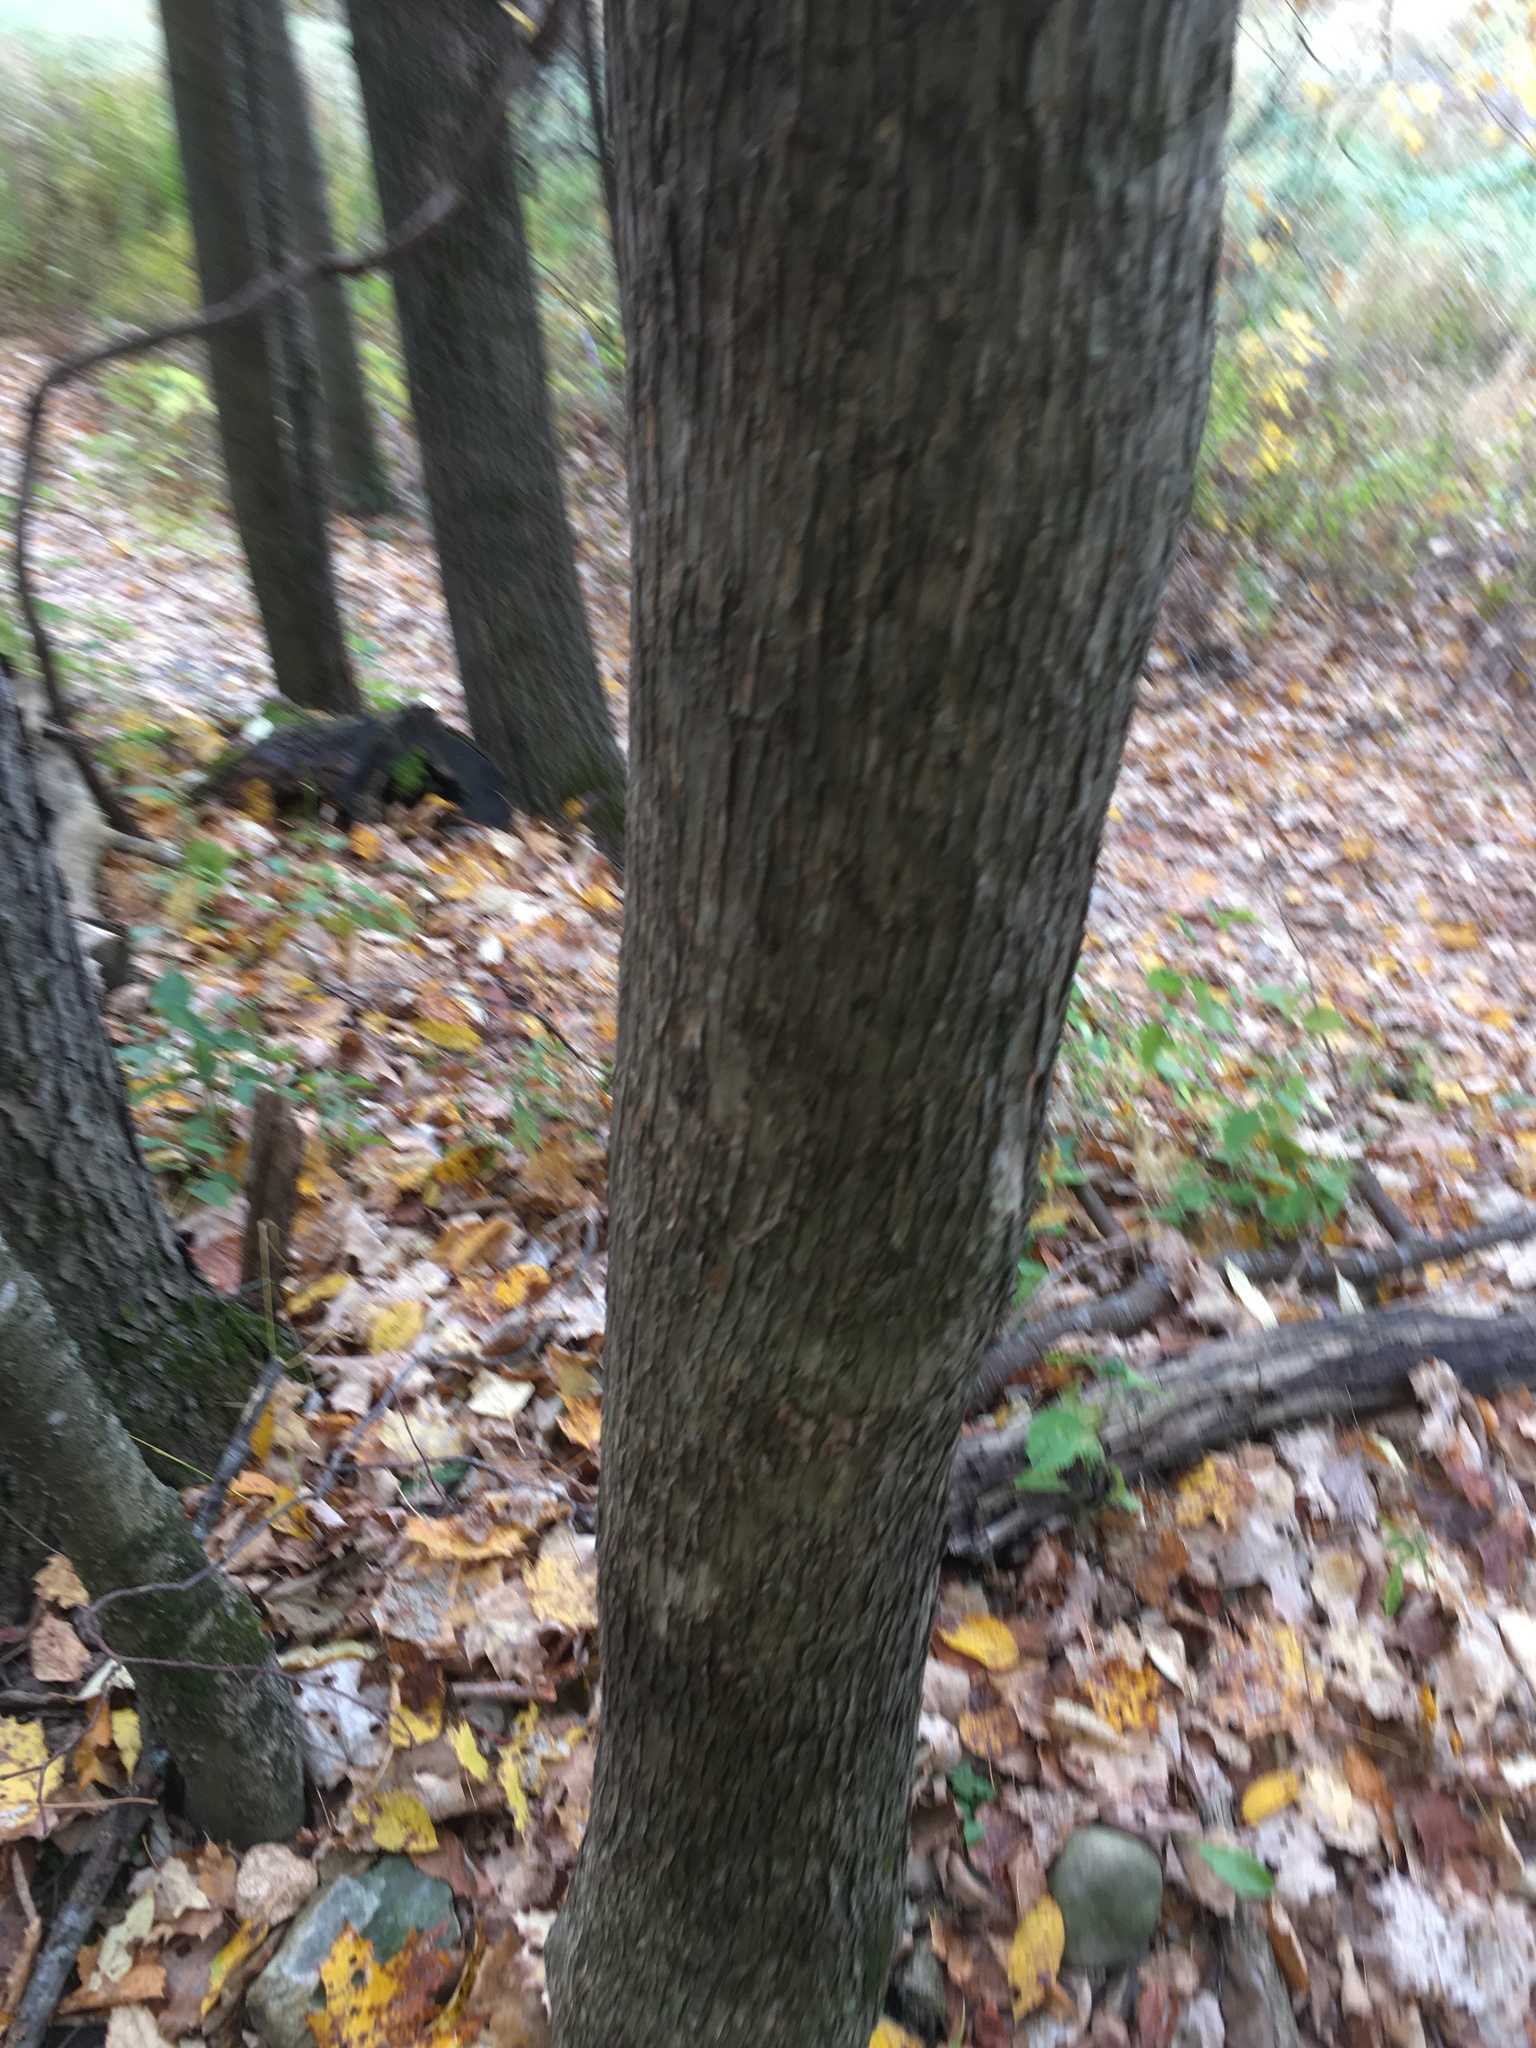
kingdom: Plantae
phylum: Tracheophyta
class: Magnoliopsida
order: Fagales
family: Betulaceae
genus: Ostrya
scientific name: Ostrya virginiana
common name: Ironwood
